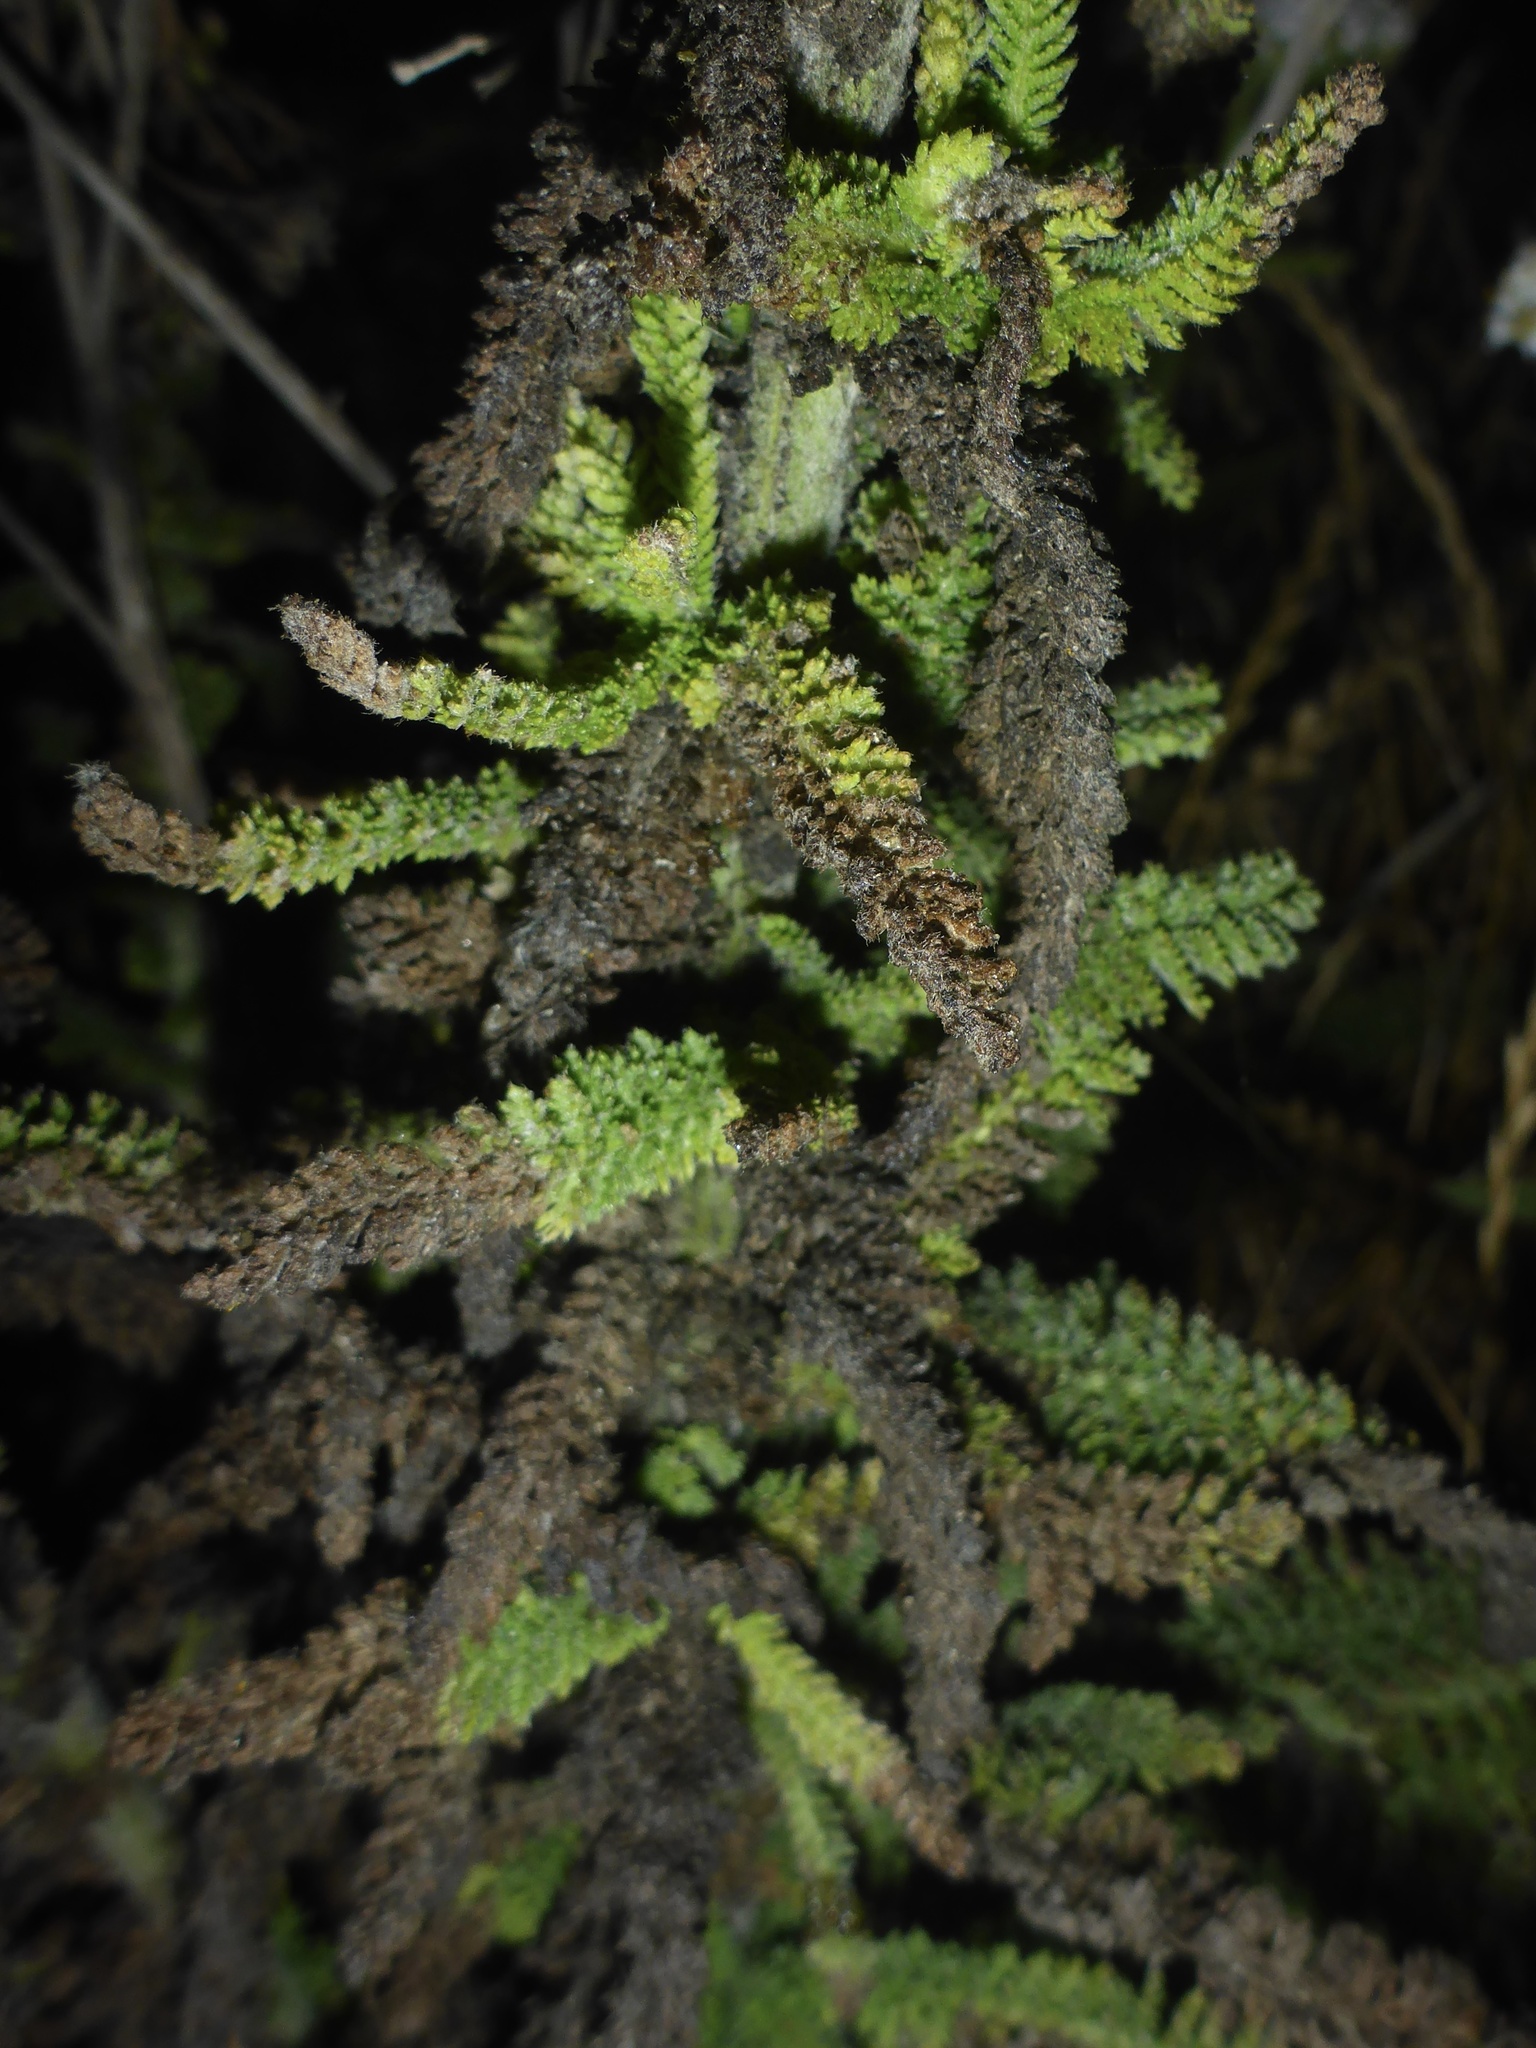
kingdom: Plantae
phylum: Tracheophyta
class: Magnoliopsida
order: Asterales
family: Asteraceae
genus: Achillea
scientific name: Achillea millefolium
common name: Yarrow
